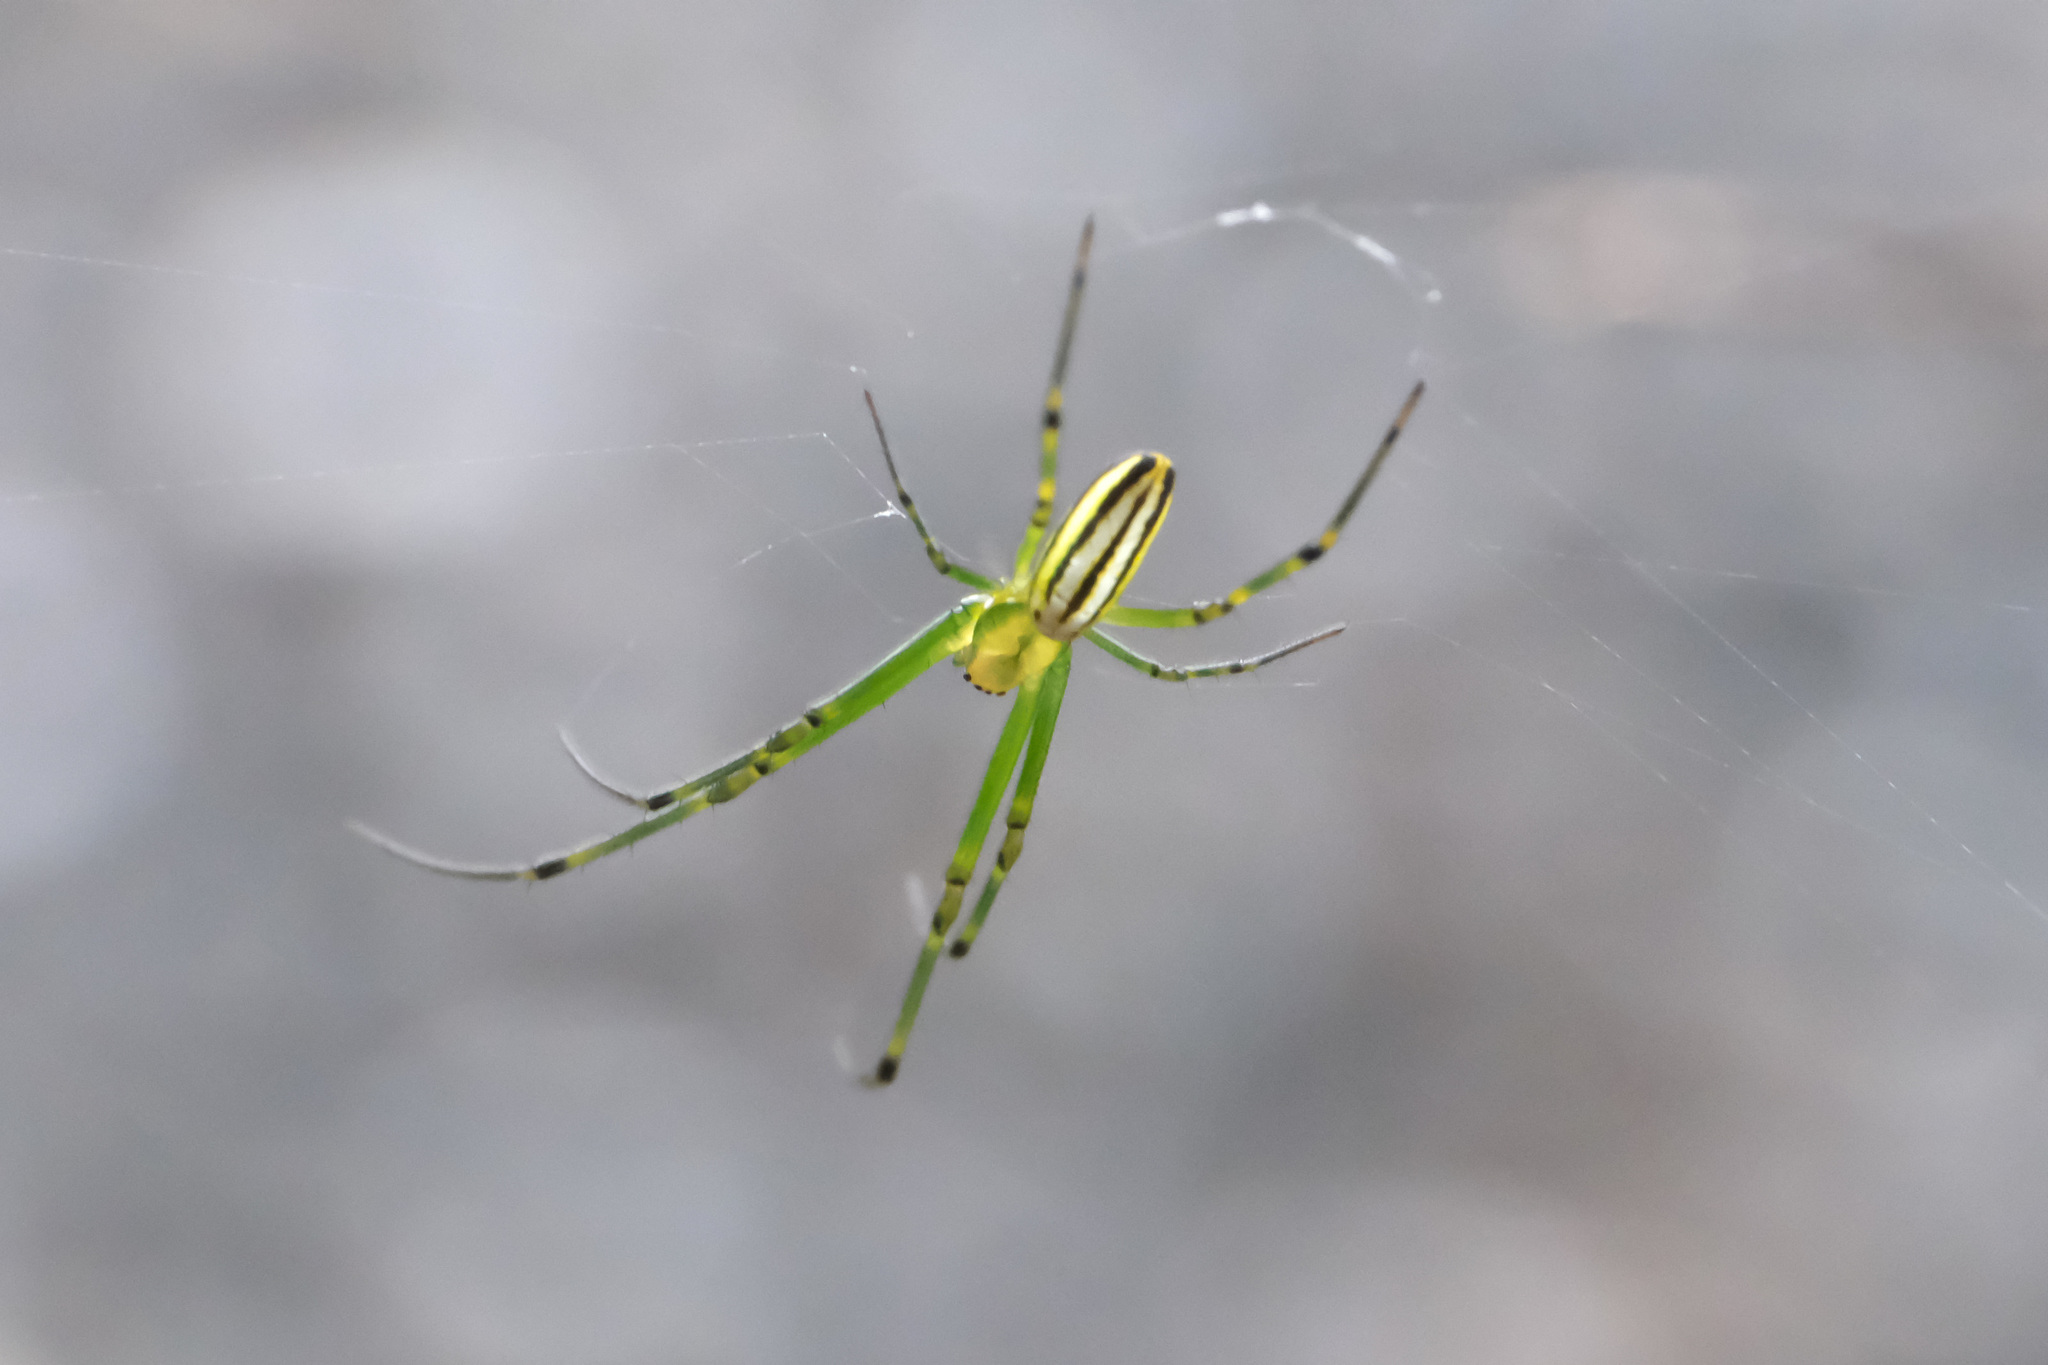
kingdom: Animalia
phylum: Arthropoda
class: Arachnida
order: Araneae
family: Tetragnathidae
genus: Leucauge
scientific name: Leucauge celebesiana
